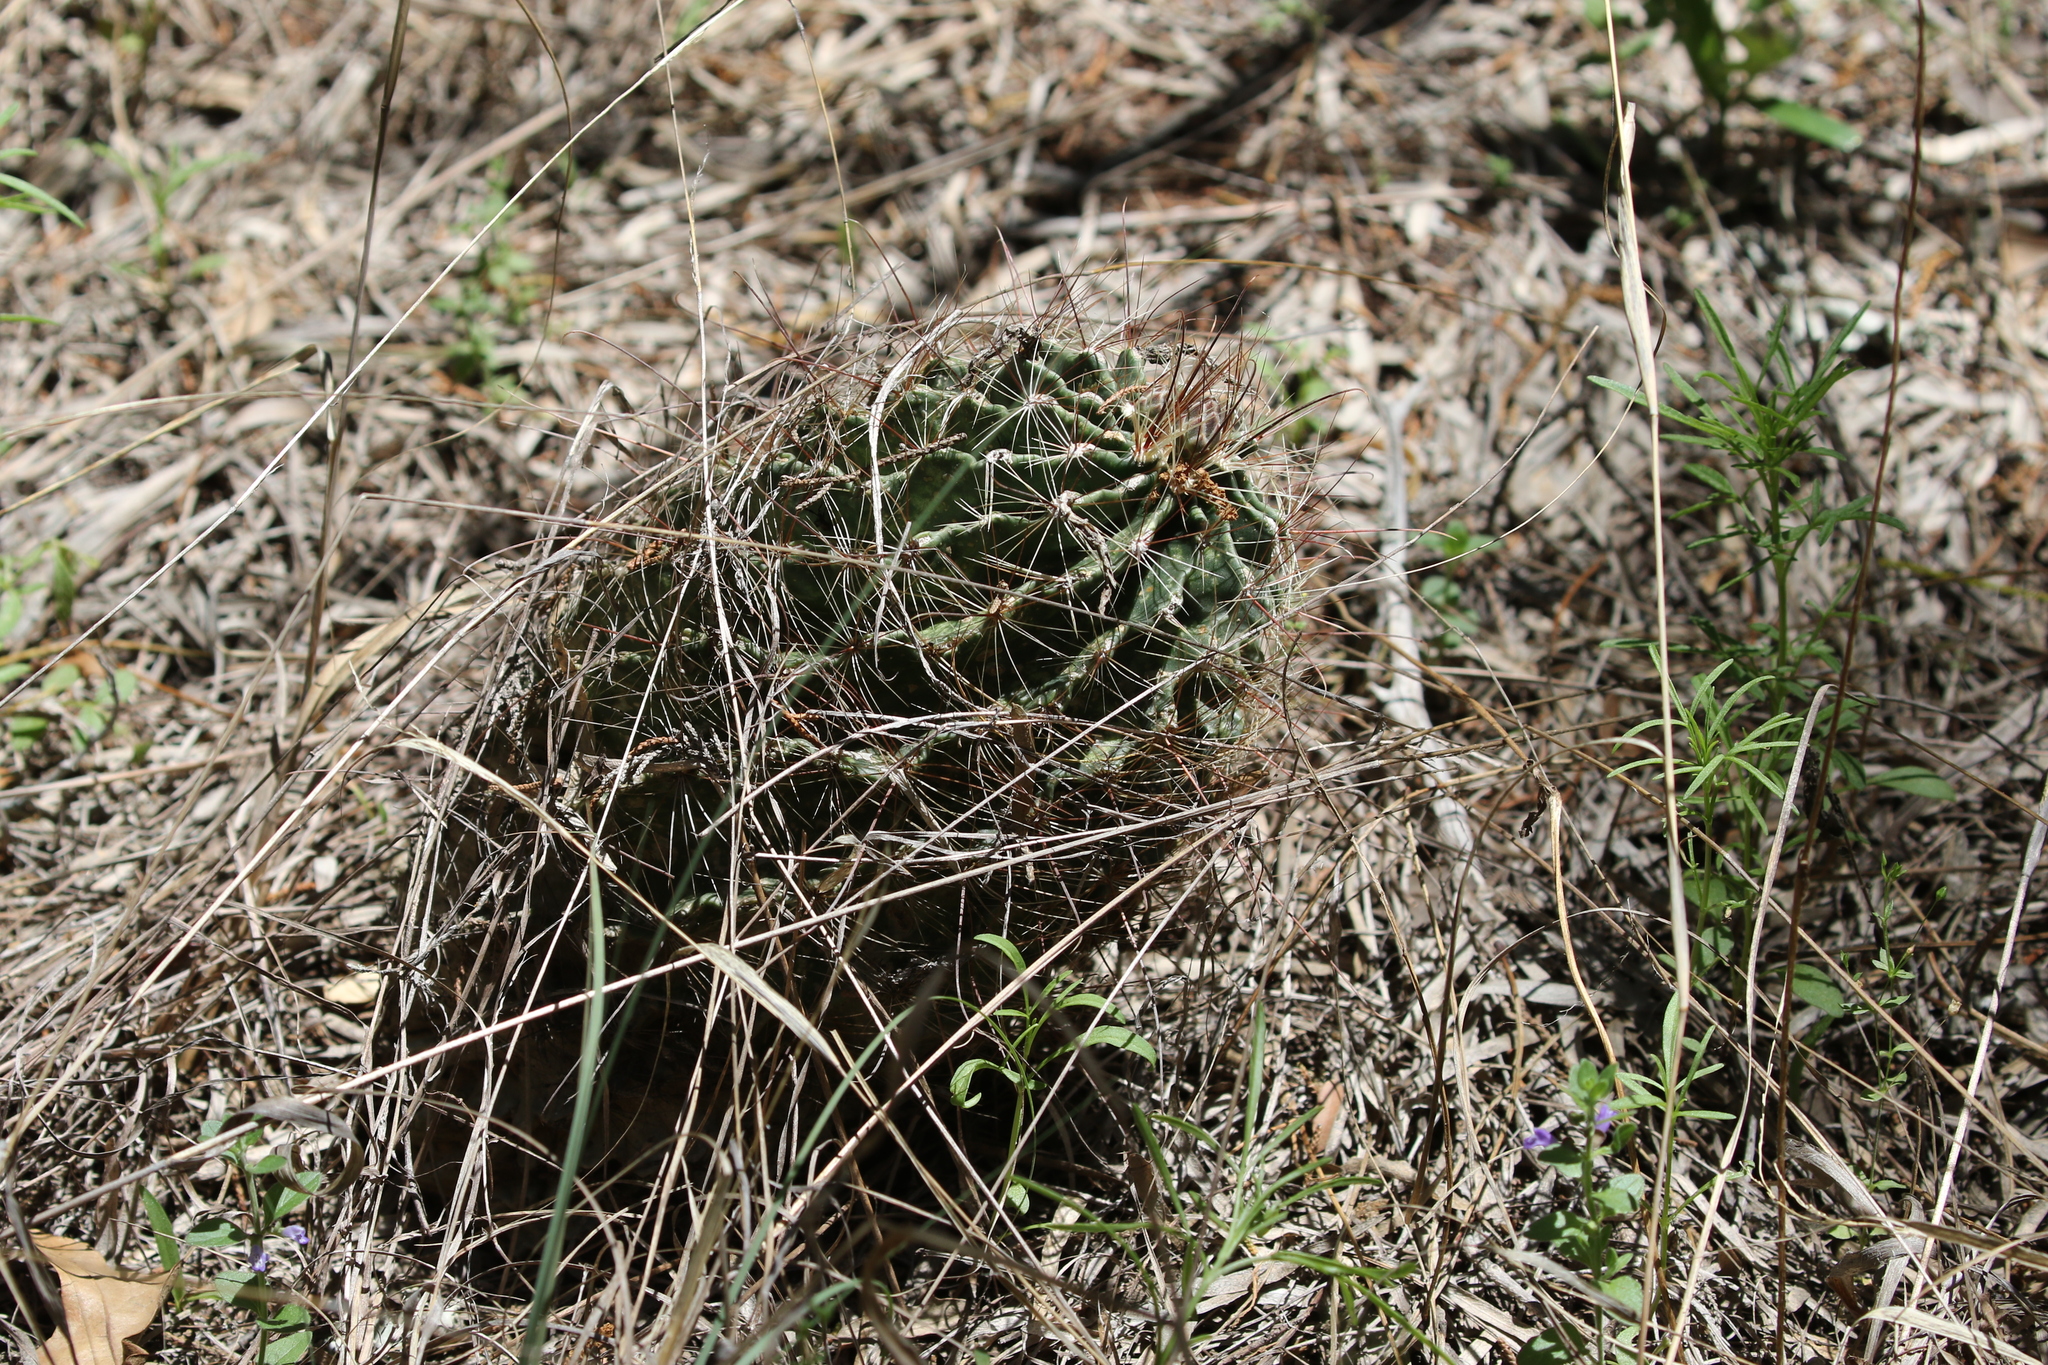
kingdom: Plantae
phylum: Tracheophyta
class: Magnoliopsida
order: Caryophyllales
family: Cactaceae
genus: Thelocactus
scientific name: Thelocactus setispinus
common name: Miniature barrel cactus
